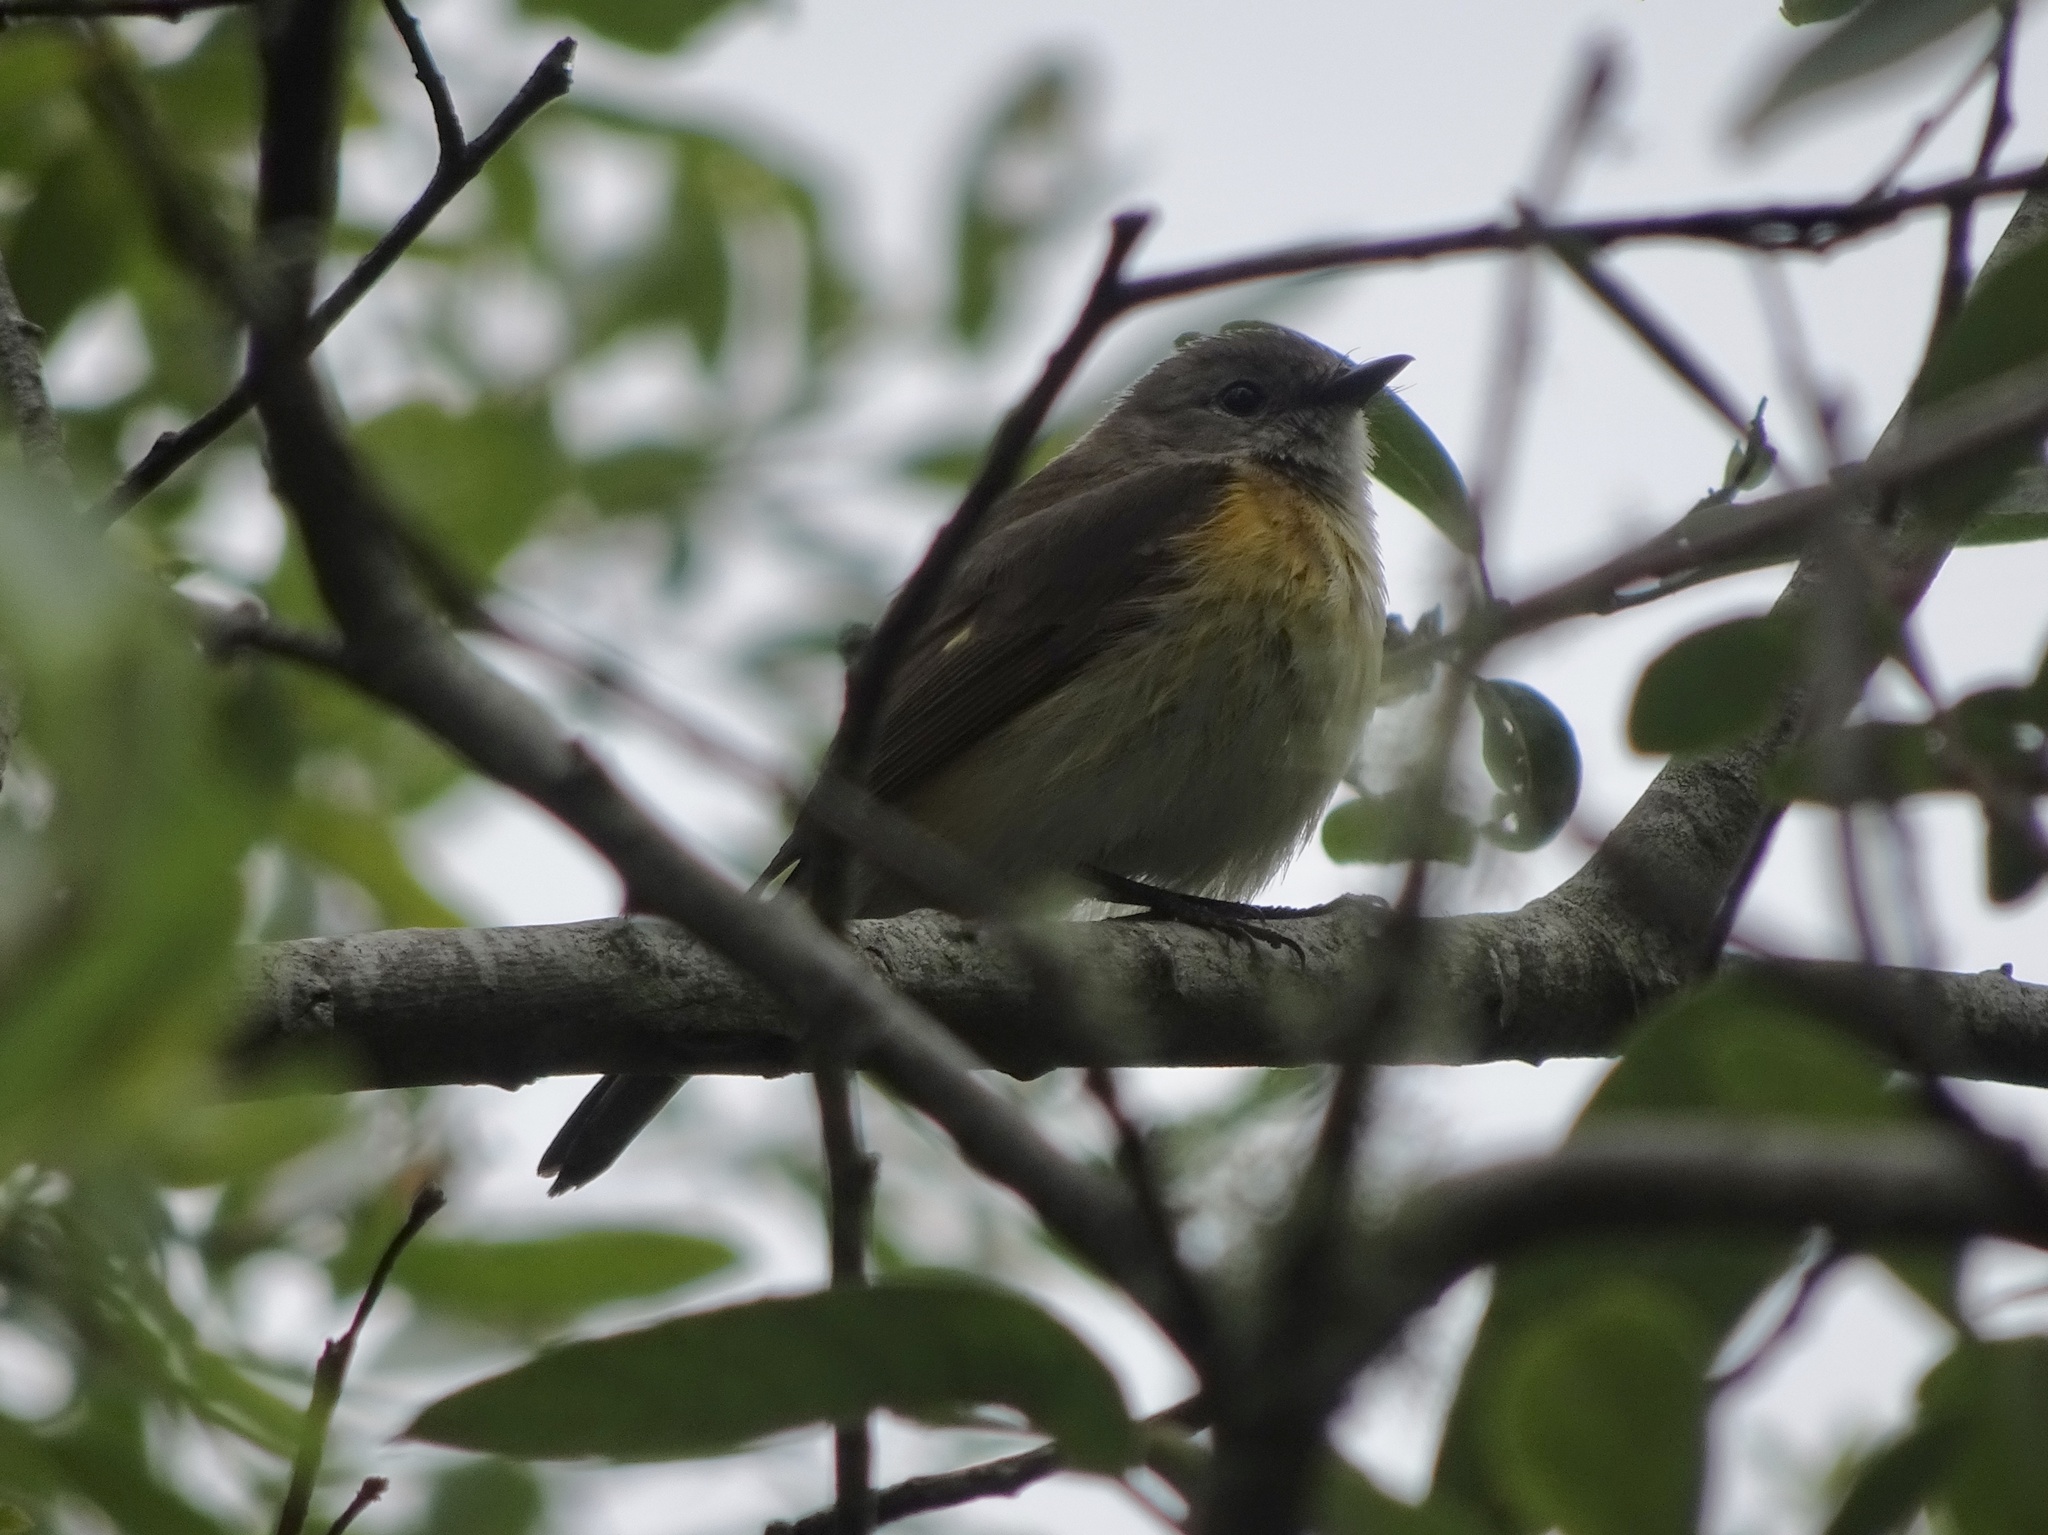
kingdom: Animalia
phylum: Chordata
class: Aves
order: Passeriformes
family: Parulidae
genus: Setophaga
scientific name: Setophaga ruticilla
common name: American redstart
